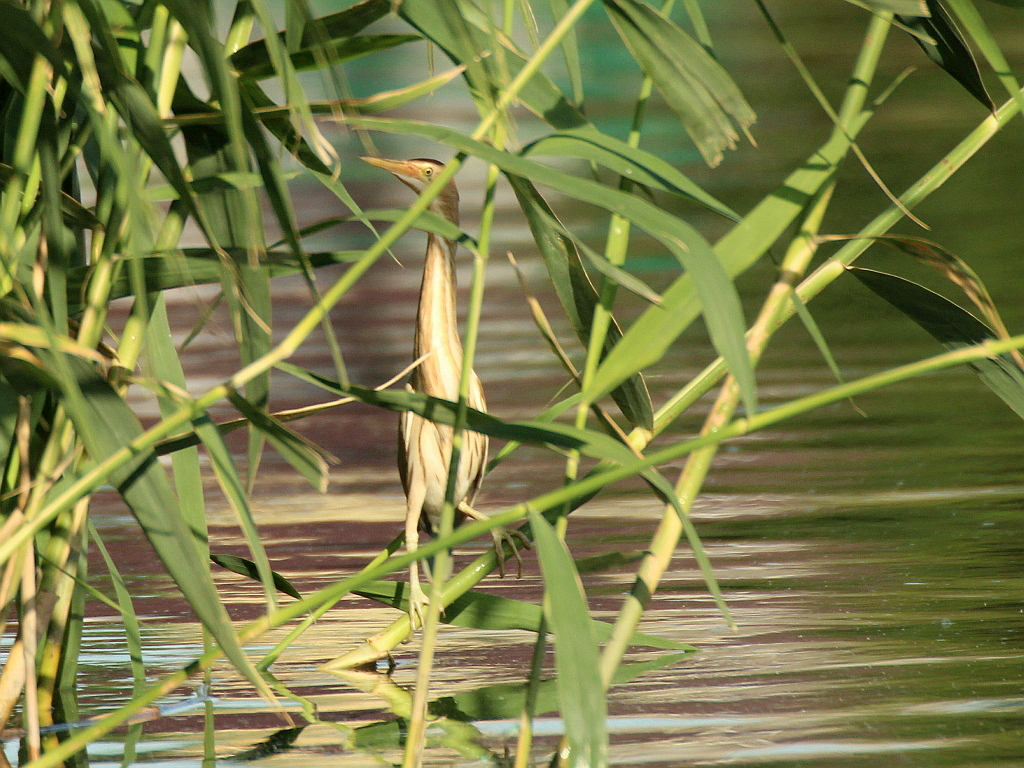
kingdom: Animalia
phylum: Chordata
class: Aves
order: Pelecaniformes
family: Ardeidae
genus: Ixobrychus
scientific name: Ixobrychus minutus
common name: Little bittern
